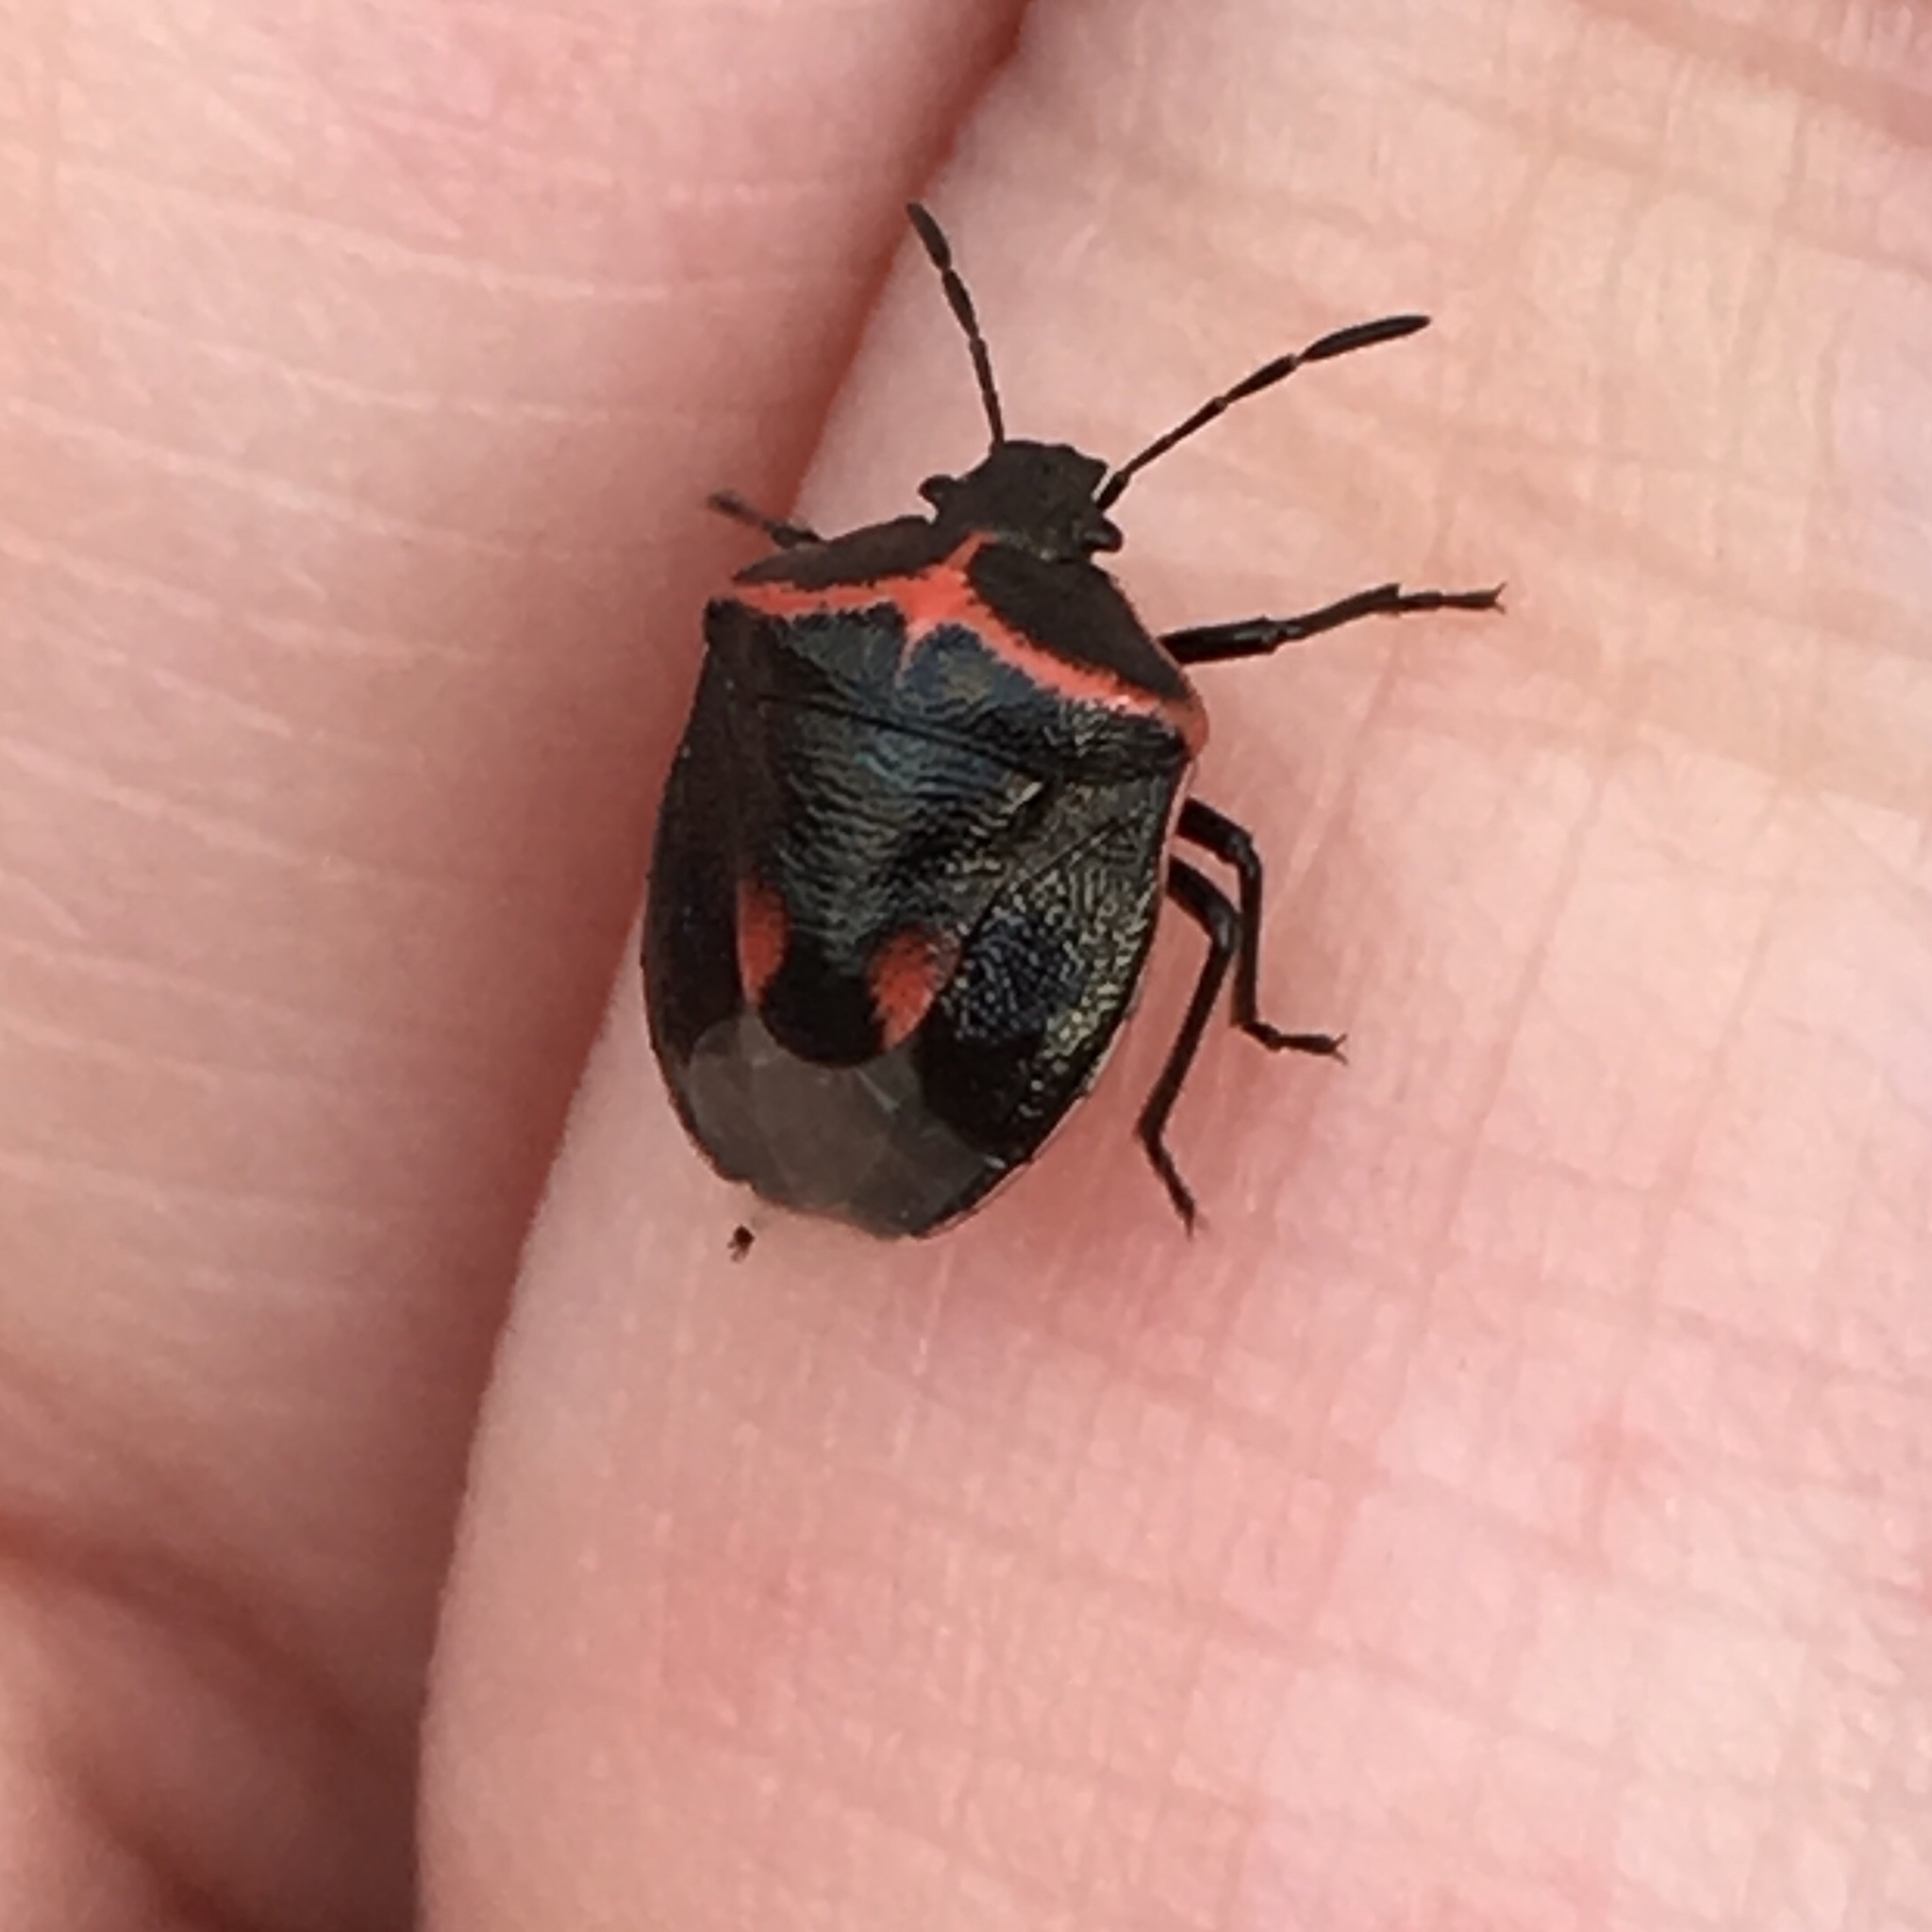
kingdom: Animalia
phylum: Arthropoda
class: Insecta
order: Hemiptera
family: Pentatomidae
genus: Cosmopepla
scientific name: Cosmopepla lintneriana
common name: Twice-stabbed stink bug
